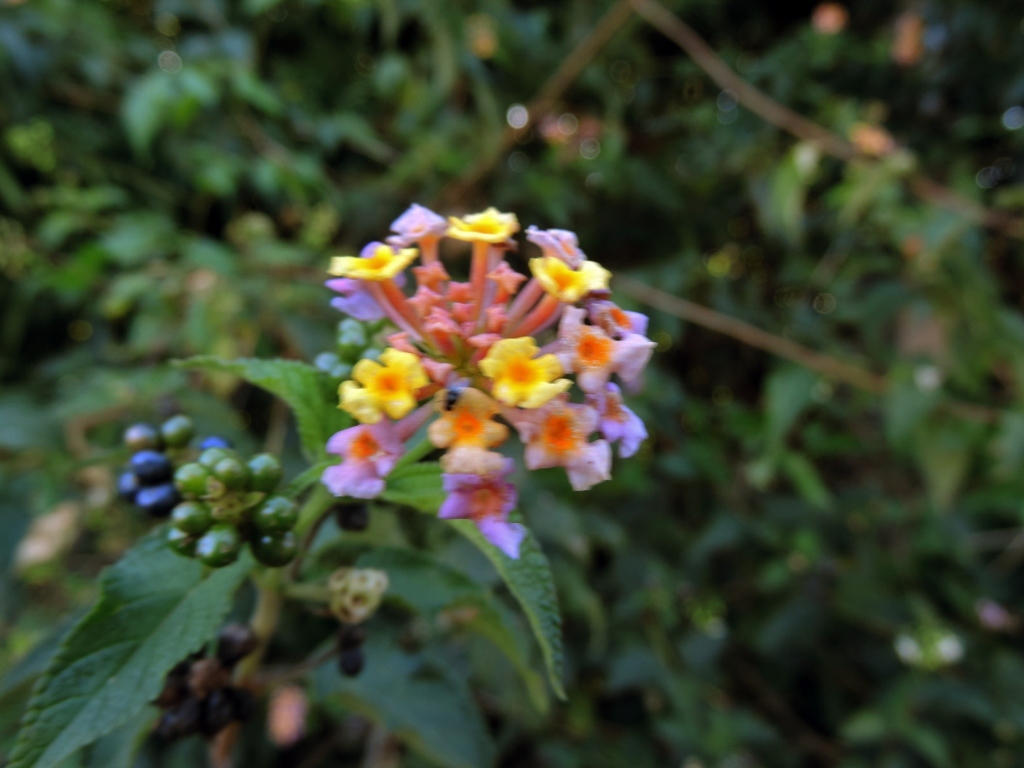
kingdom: Plantae
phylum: Tracheophyta
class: Magnoliopsida
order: Lamiales
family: Verbenaceae
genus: Lantana
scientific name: Lantana camara
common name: Lantana
